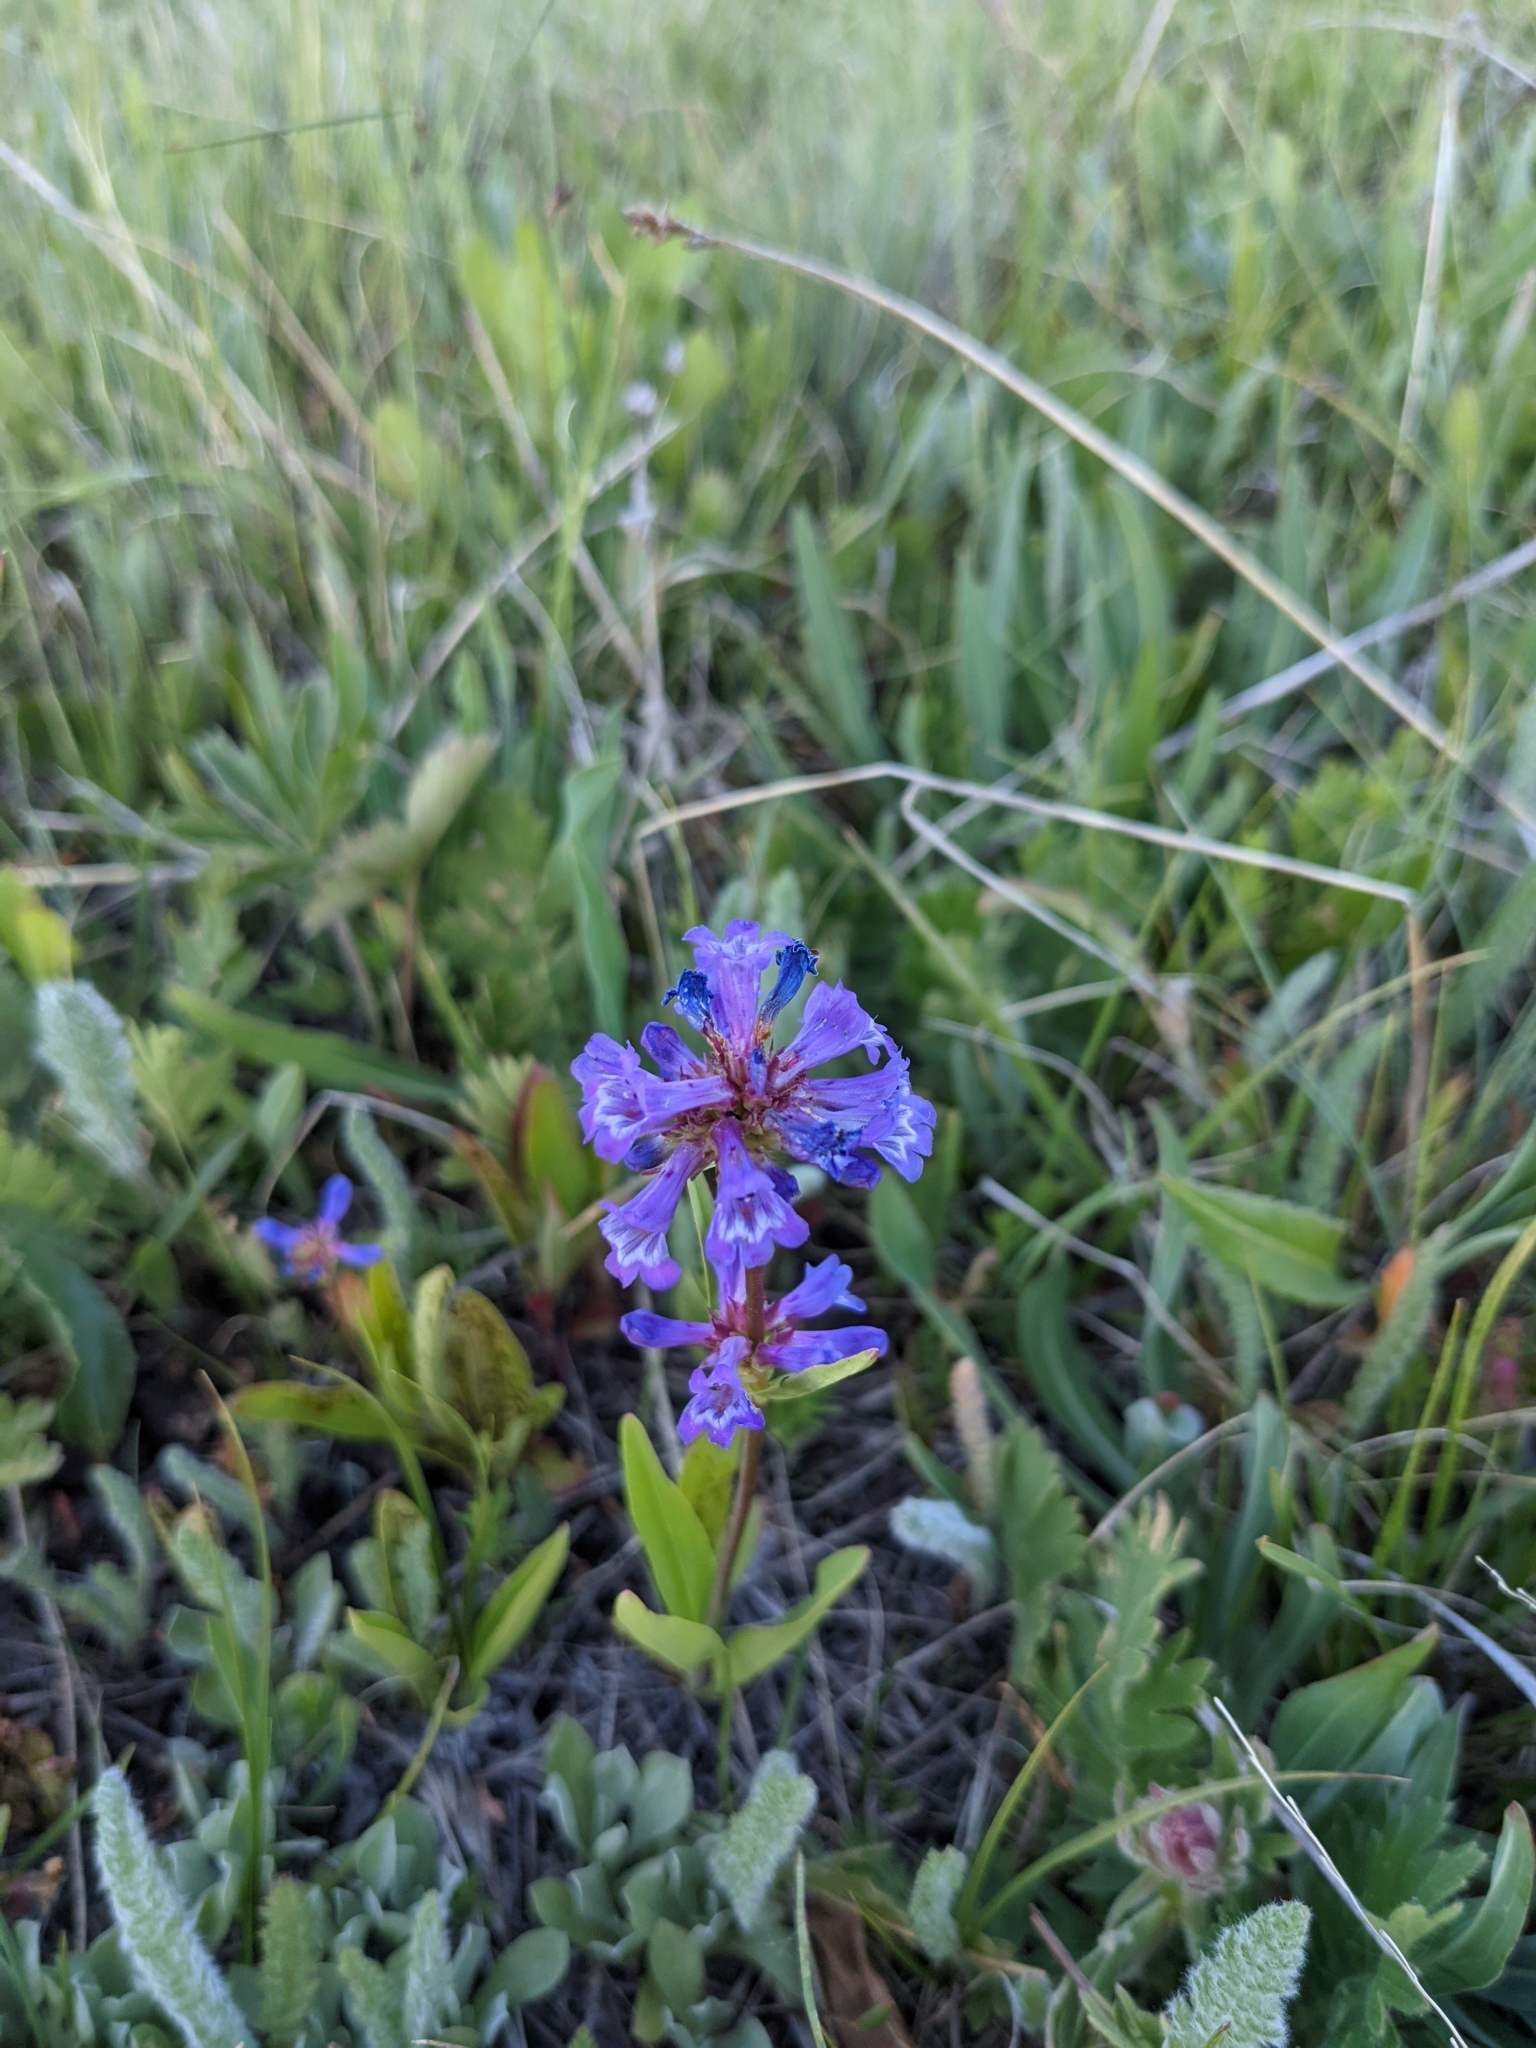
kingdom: Plantae
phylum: Tracheophyta
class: Magnoliopsida
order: Lamiales
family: Plantaginaceae
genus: Penstemon
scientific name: Penstemon procerus
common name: Small-flower penstemon
